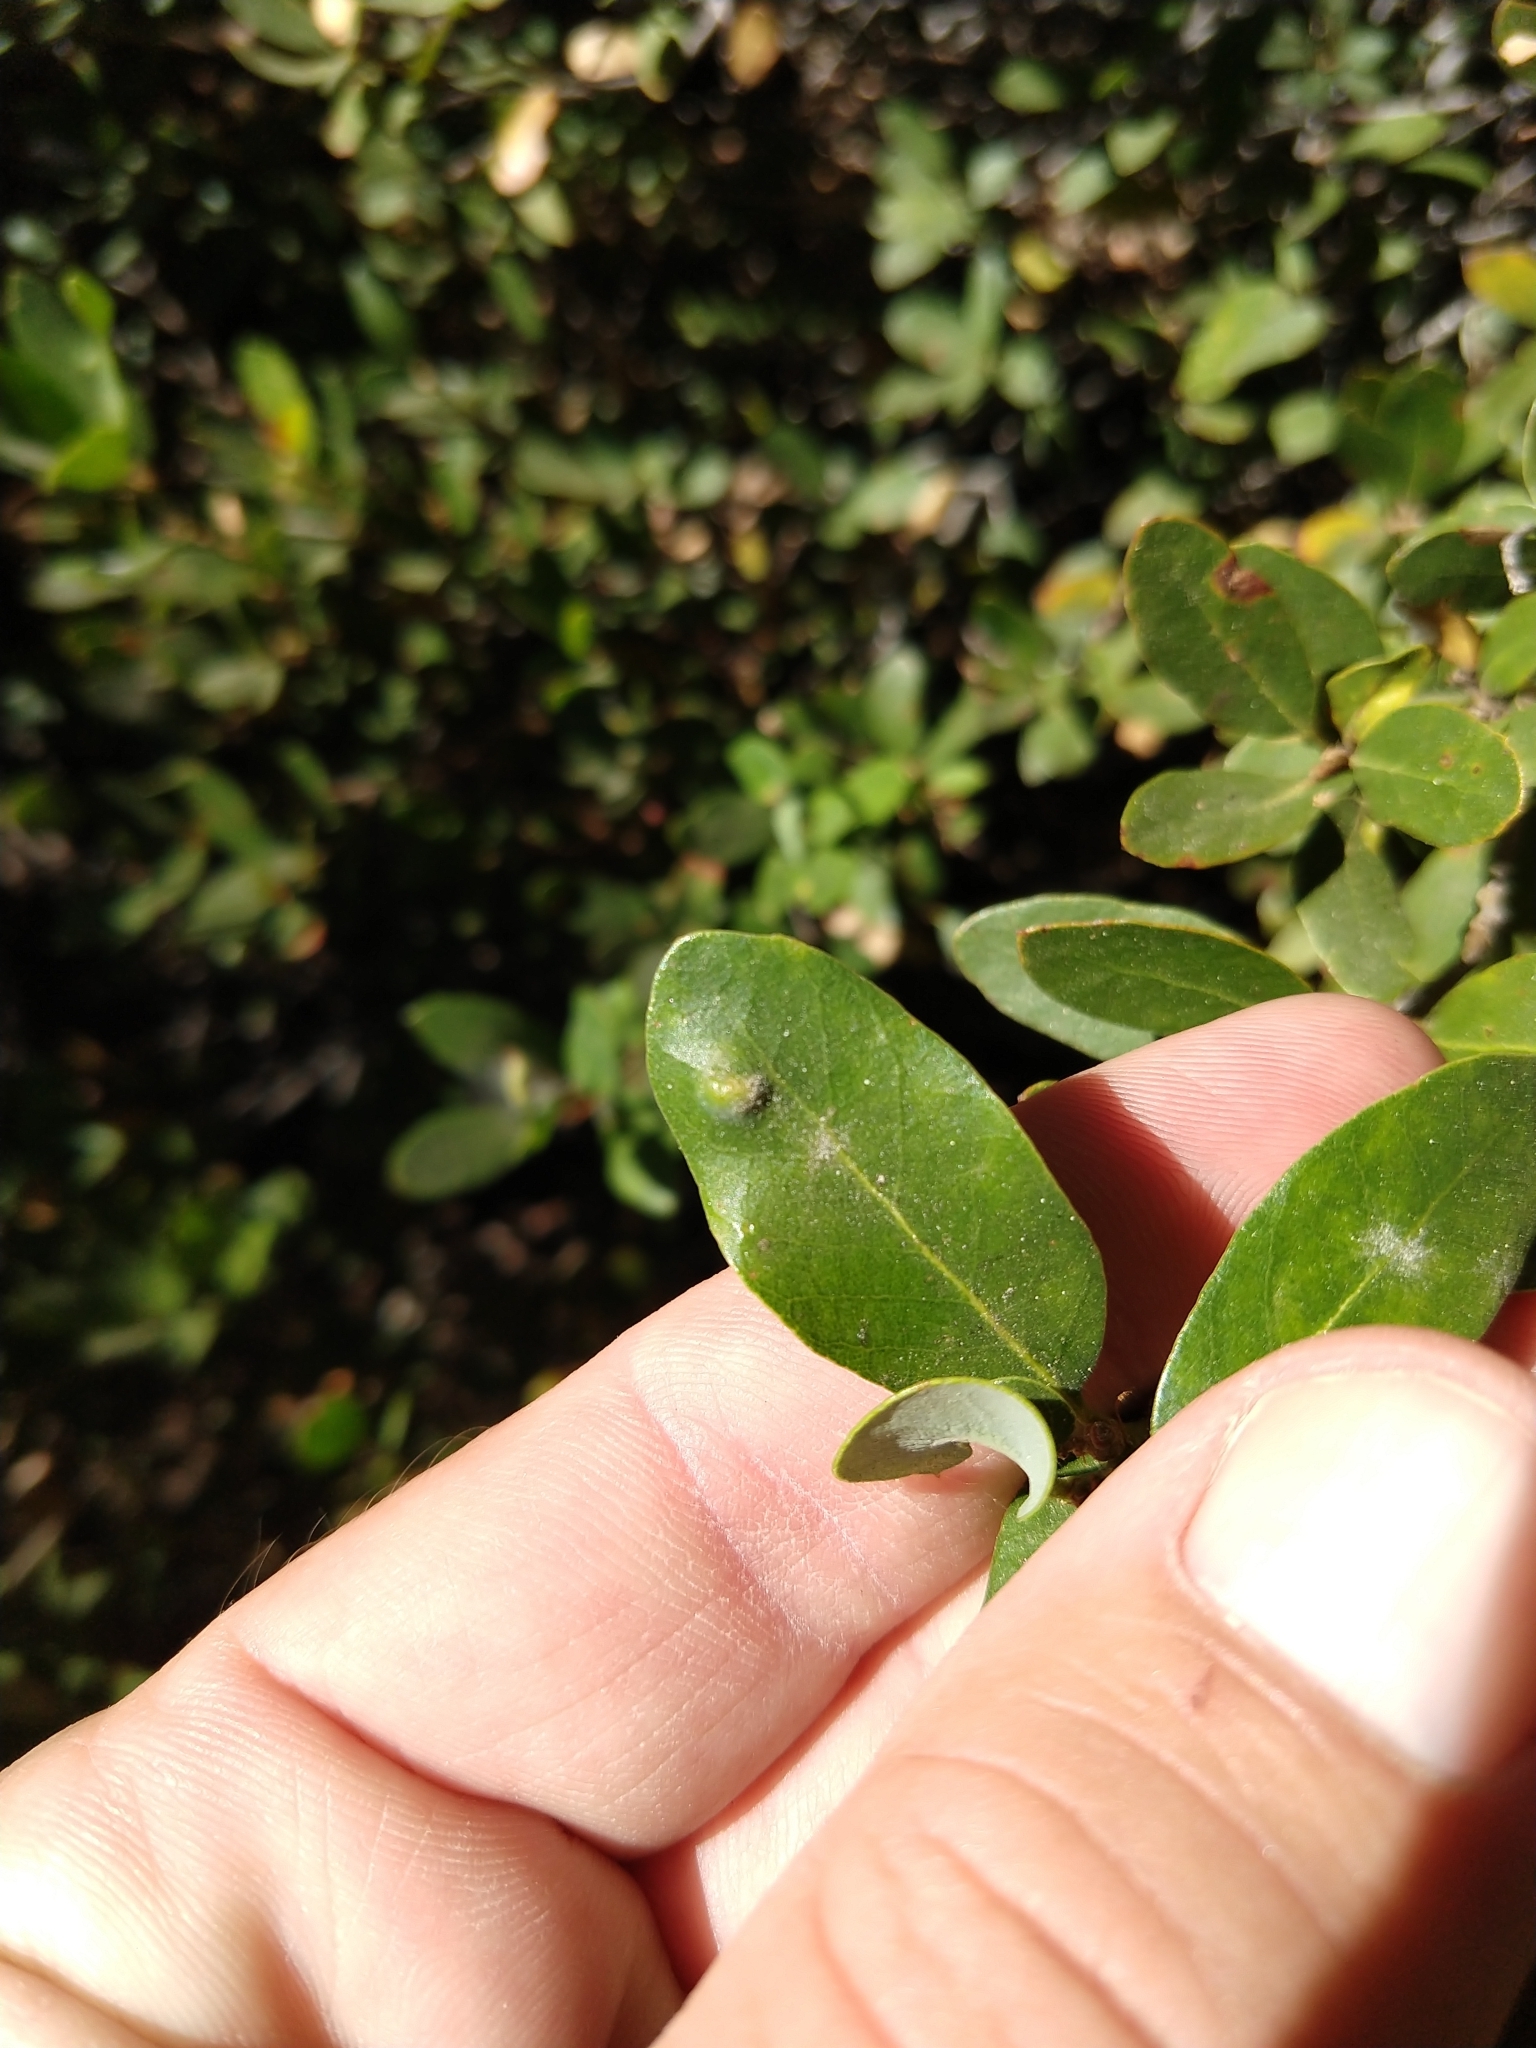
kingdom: Animalia
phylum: Arthropoda
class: Arachnida
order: Trombidiformes
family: Eriophyidae
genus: Aceria
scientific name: Aceria
